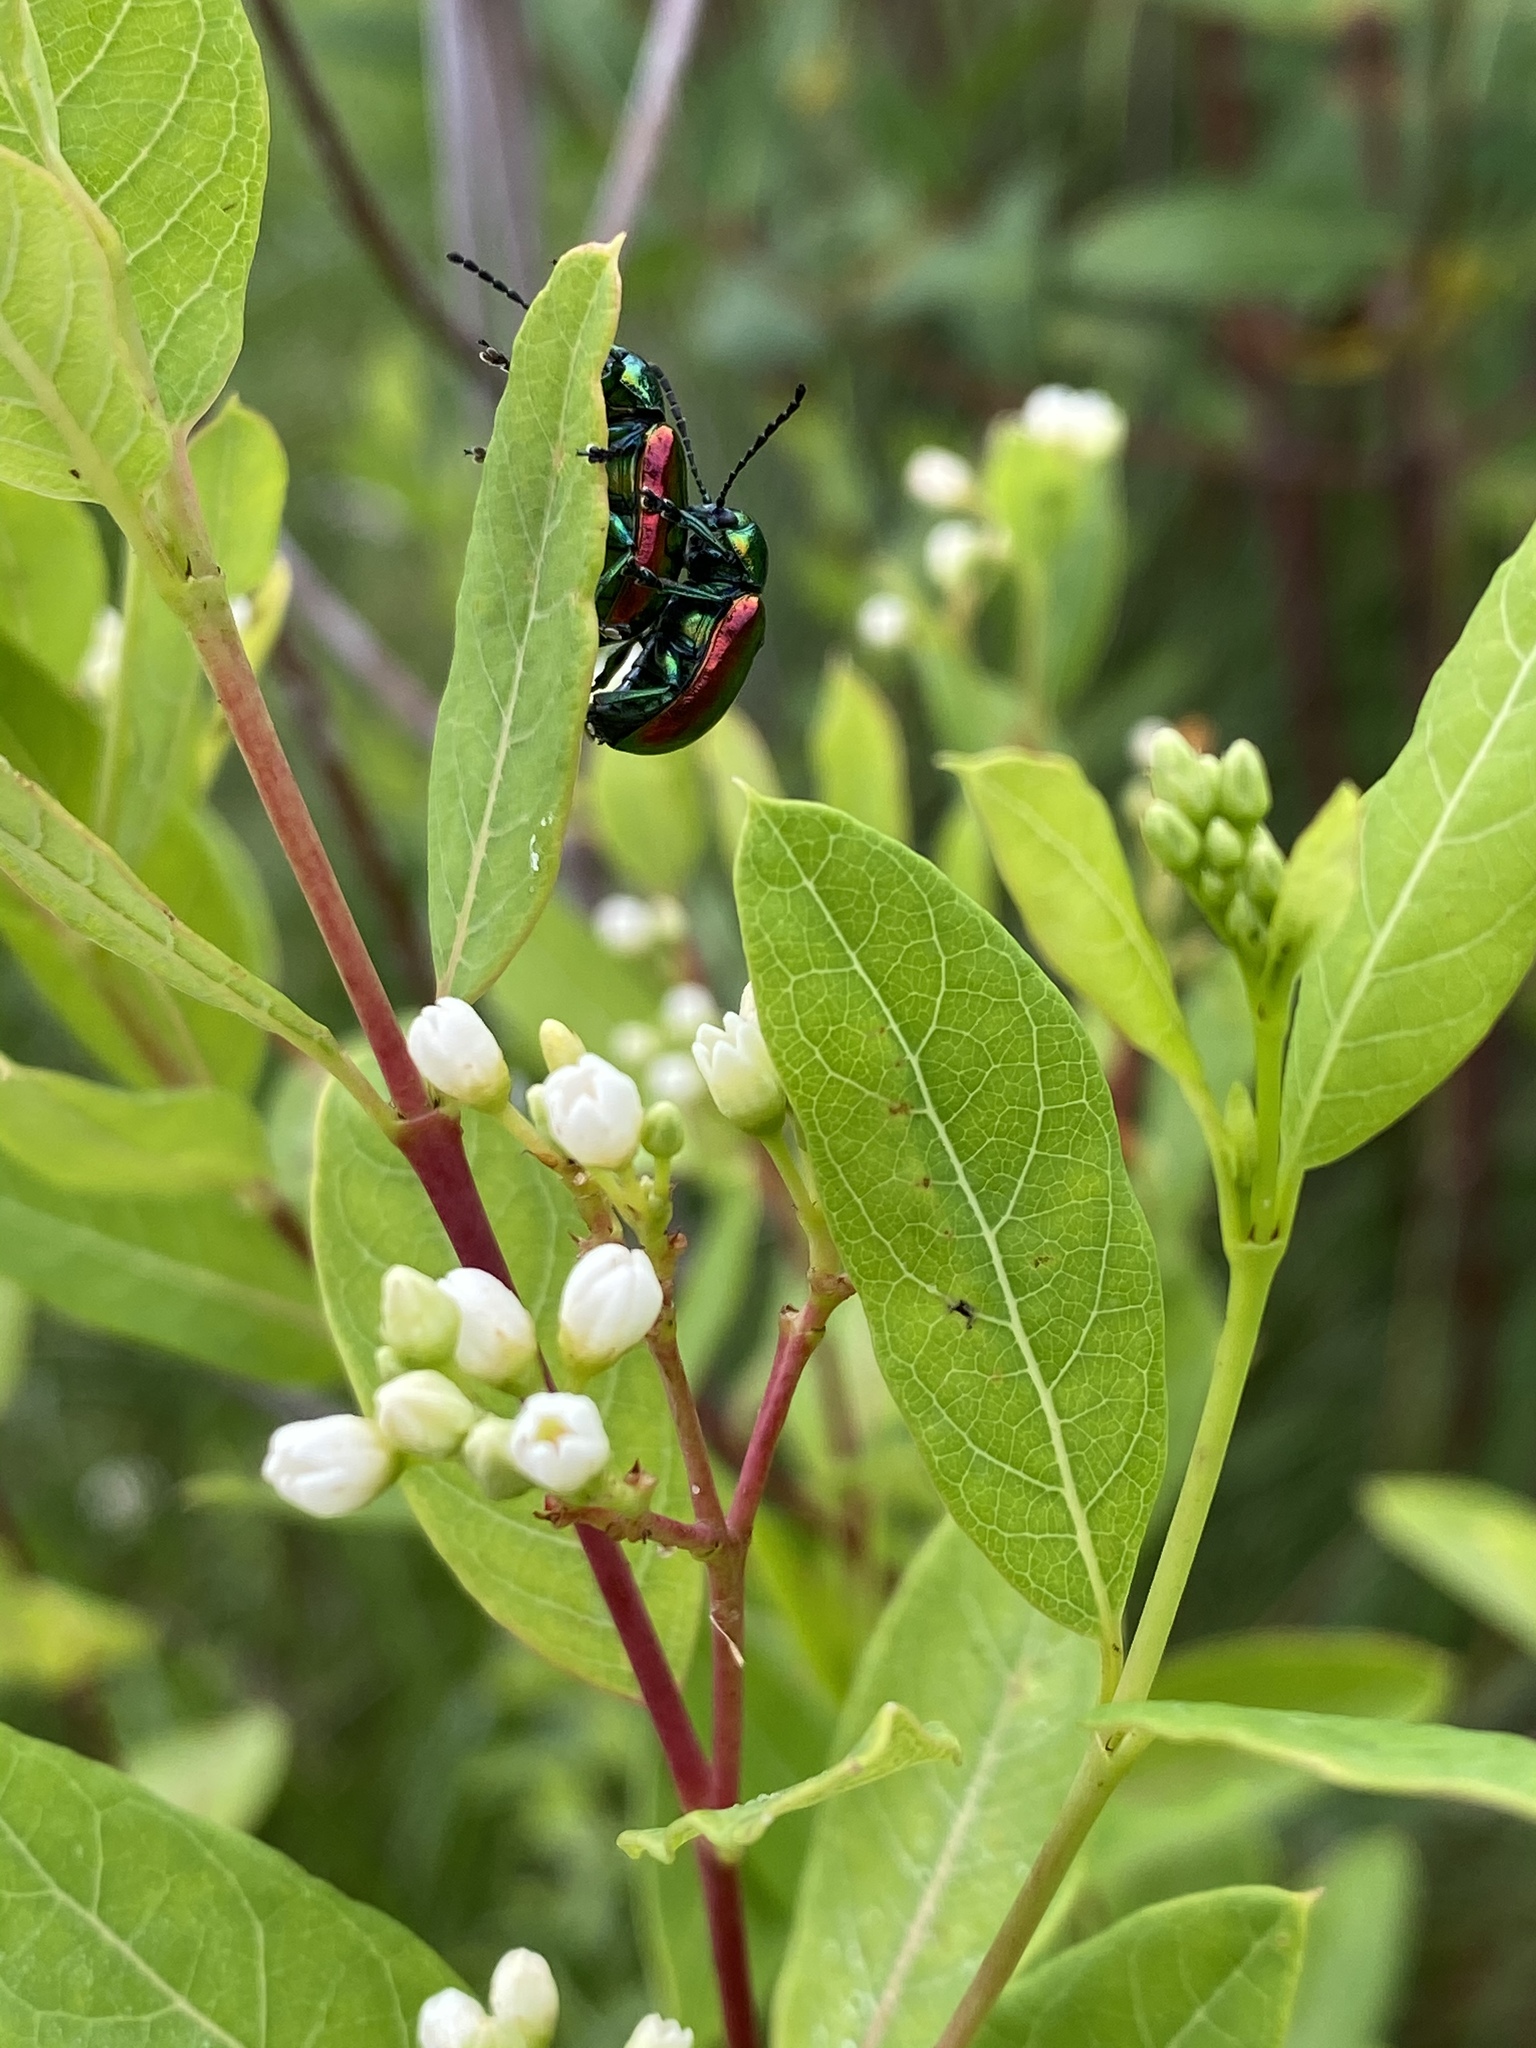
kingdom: Animalia
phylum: Arthropoda
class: Insecta
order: Coleoptera
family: Chrysomelidae
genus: Chrysochus
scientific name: Chrysochus auratus
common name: Dogbane leaf beetle
